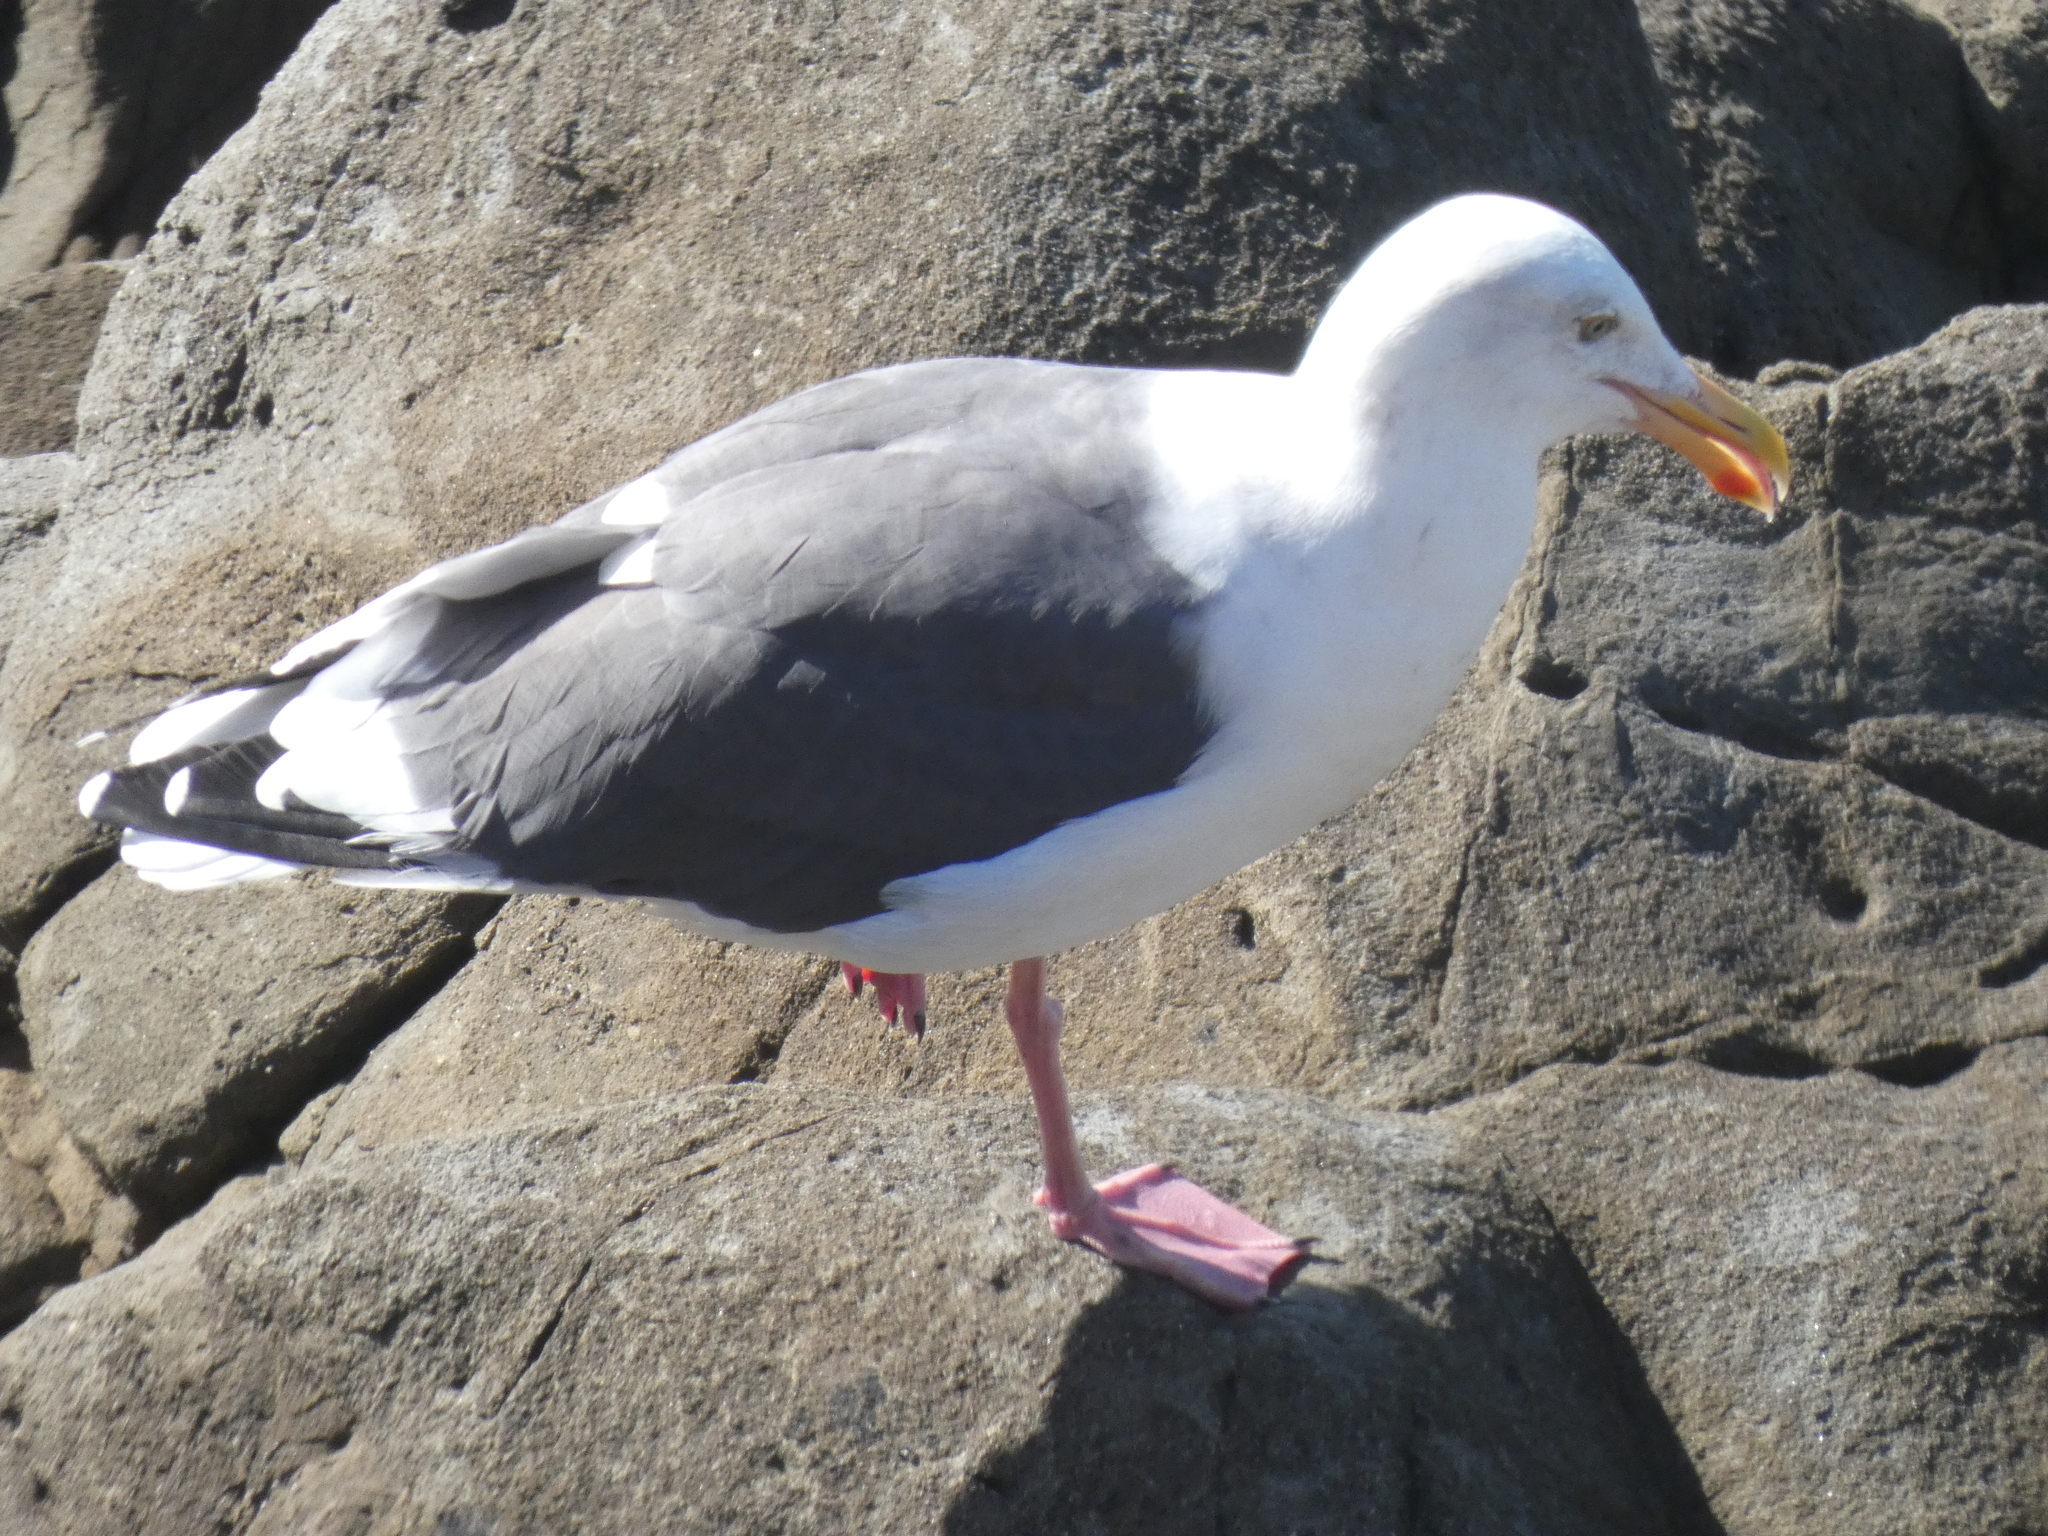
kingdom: Animalia
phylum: Chordata
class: Aves
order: Charadriiformes
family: Laridae
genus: Larus
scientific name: Larus occidentalis
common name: Western gull
